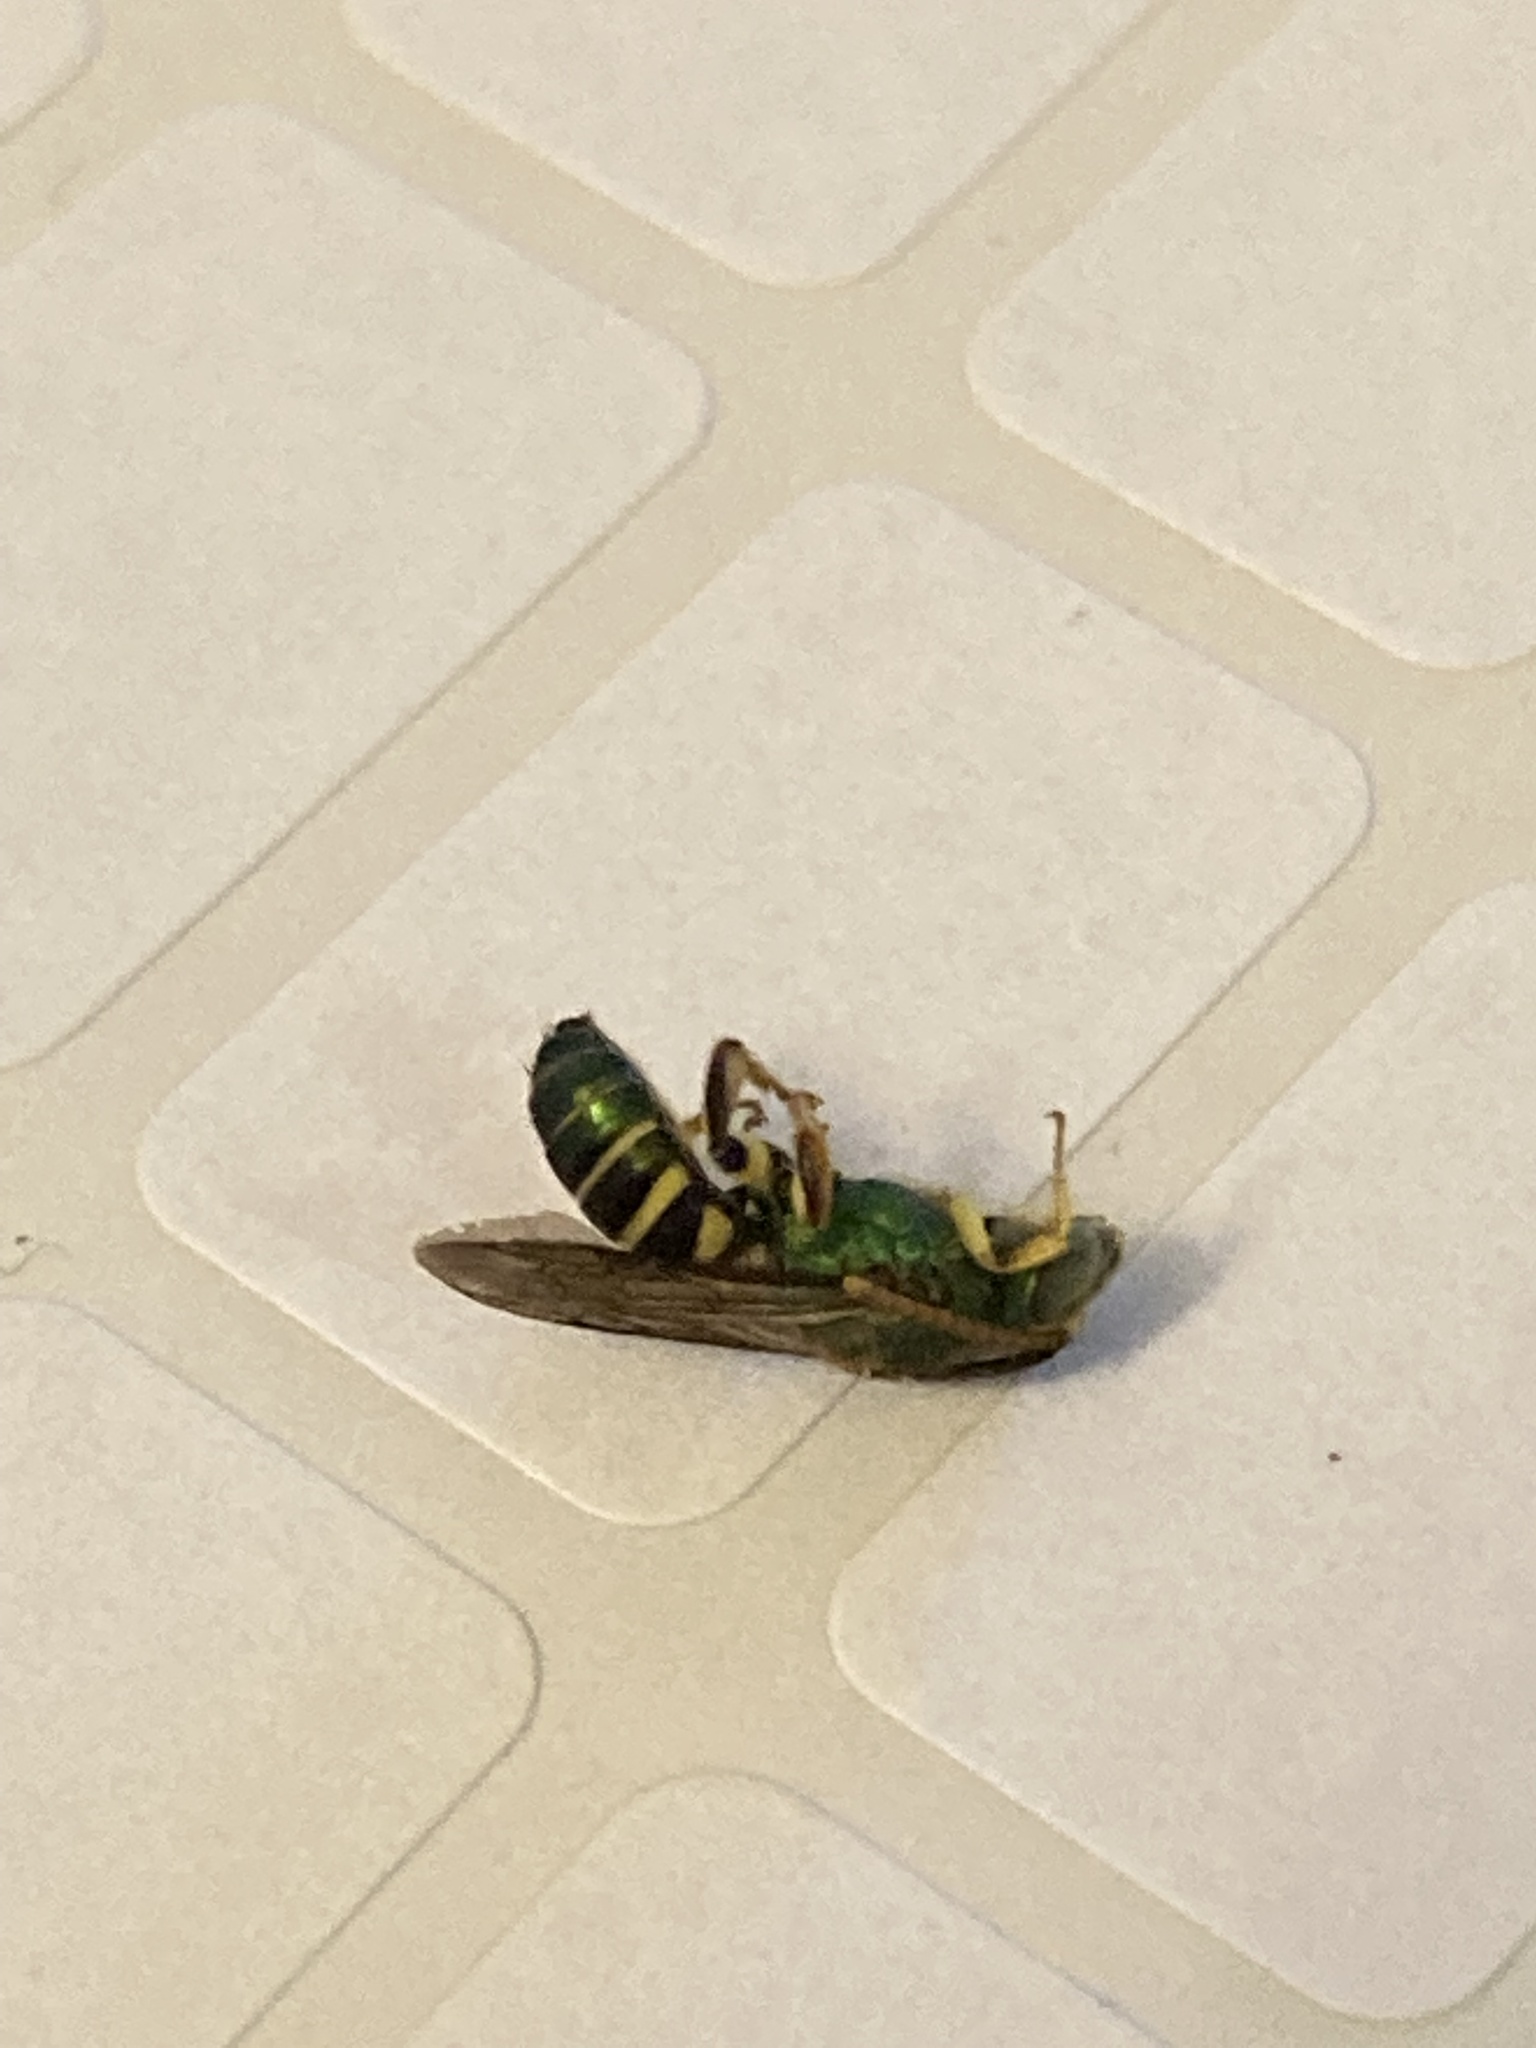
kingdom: Animalia
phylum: Arthropoda
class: Insecta
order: Hymenoptera
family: Halictidae
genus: Agapostemon
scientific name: Agapostemon poeyi
